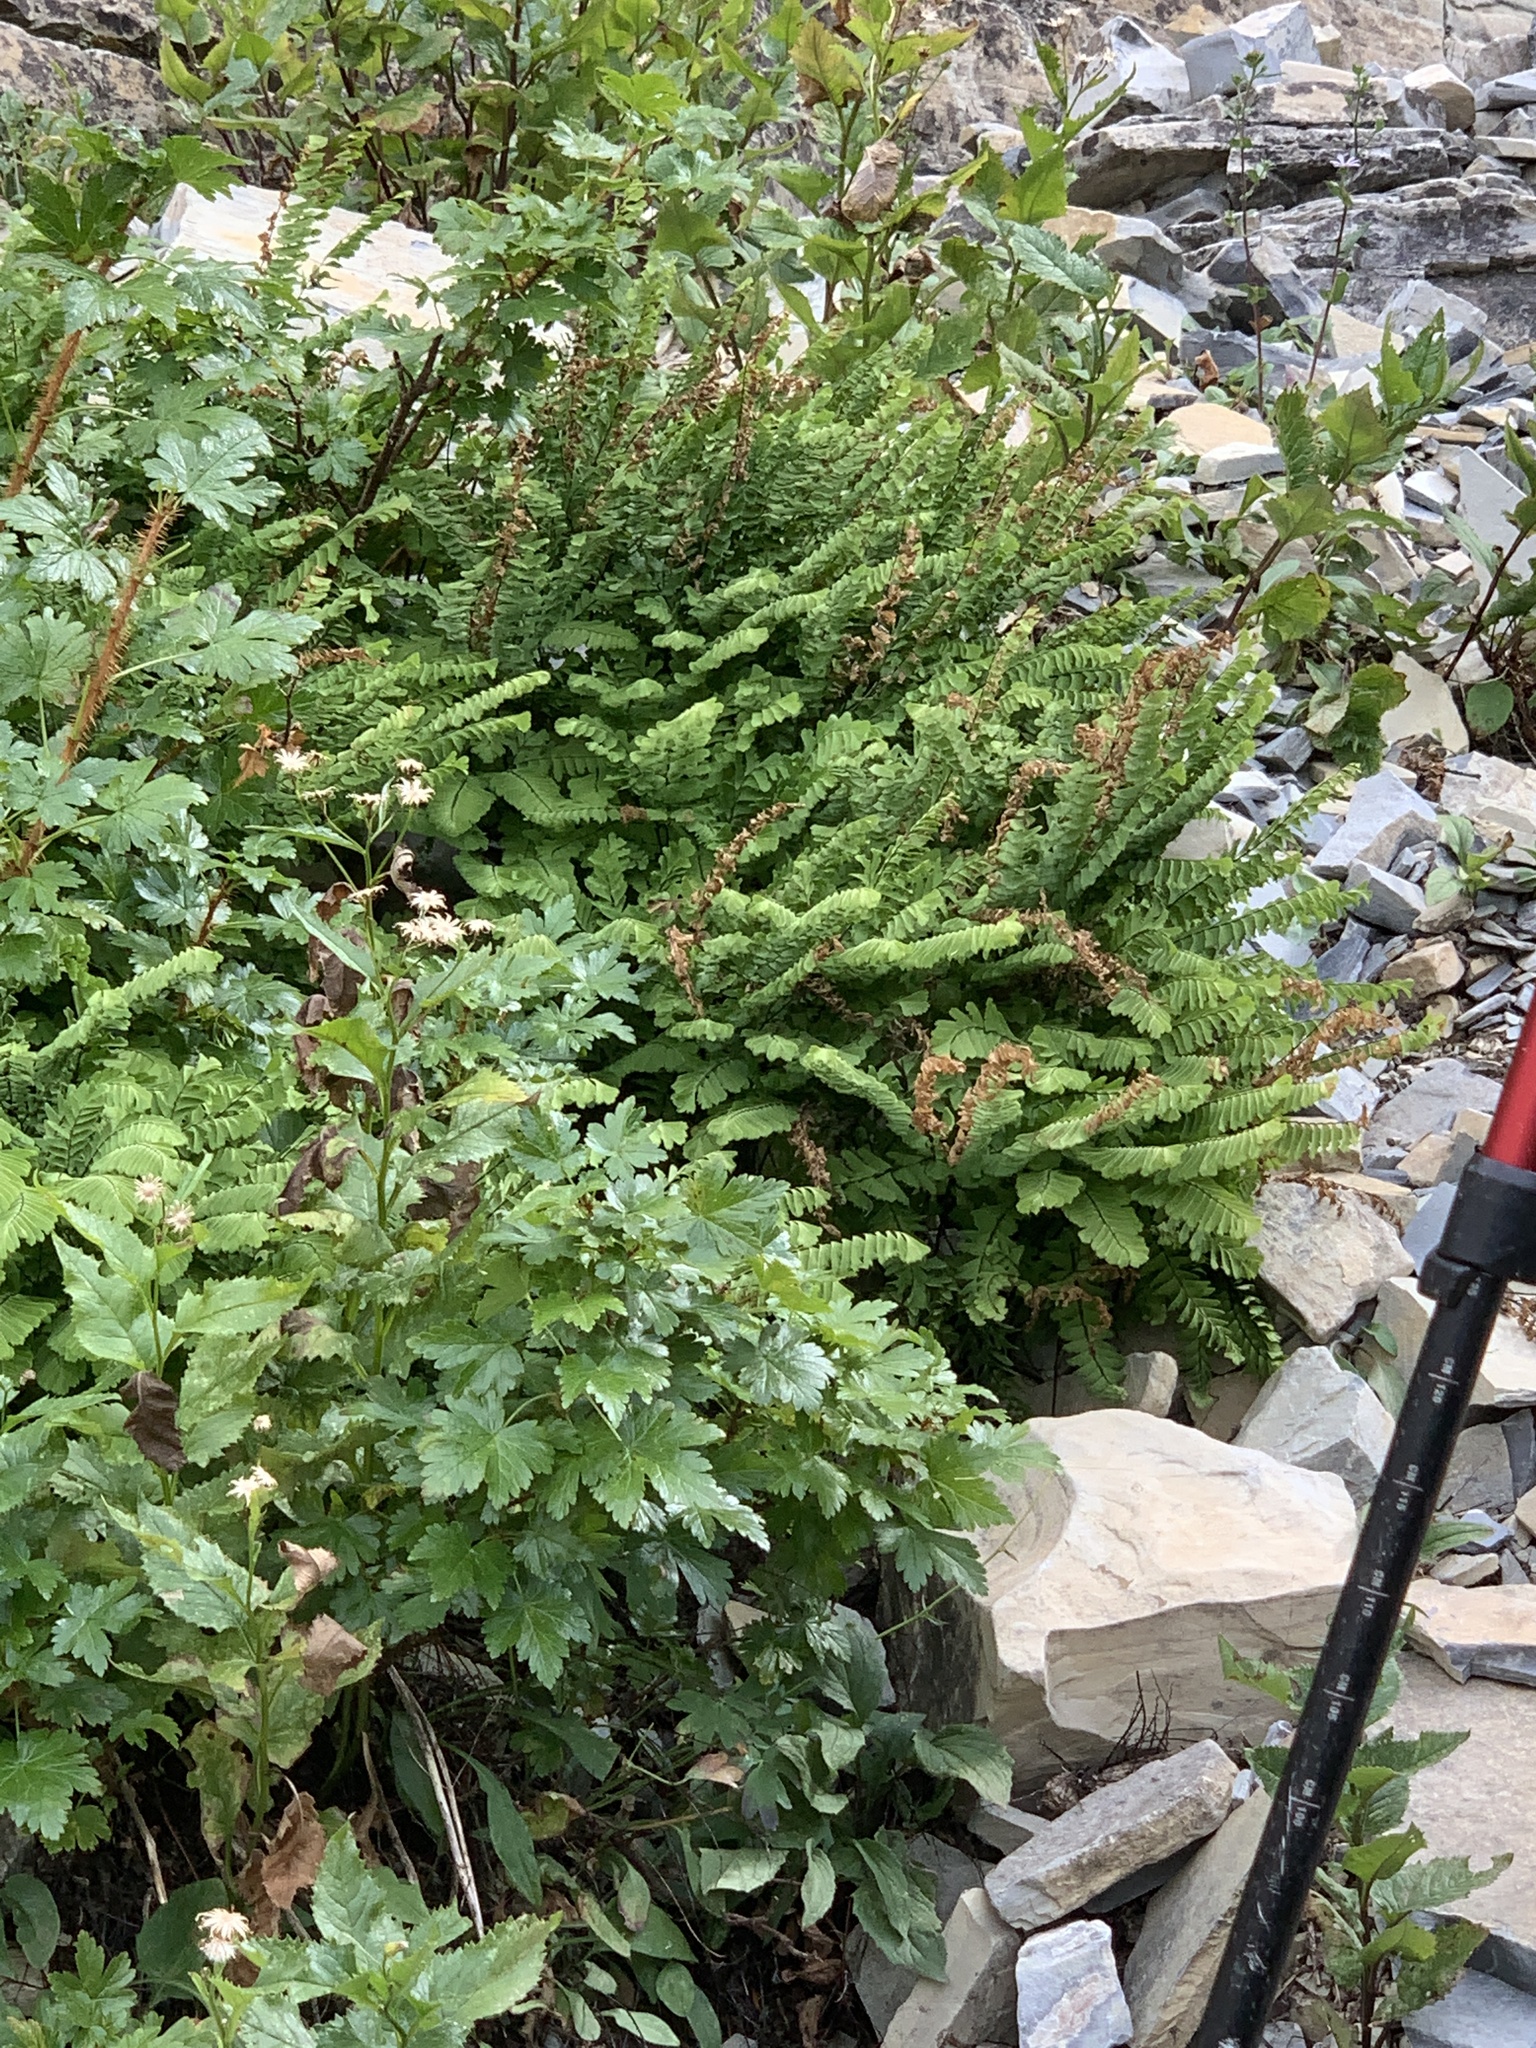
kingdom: Plantae
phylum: Tracheophyta
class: Polypodiopsida
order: Polypodiales
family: Pteridaceae
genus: Adiantum
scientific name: Adiantum aleuticum
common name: Aleutian maidenhair fern
